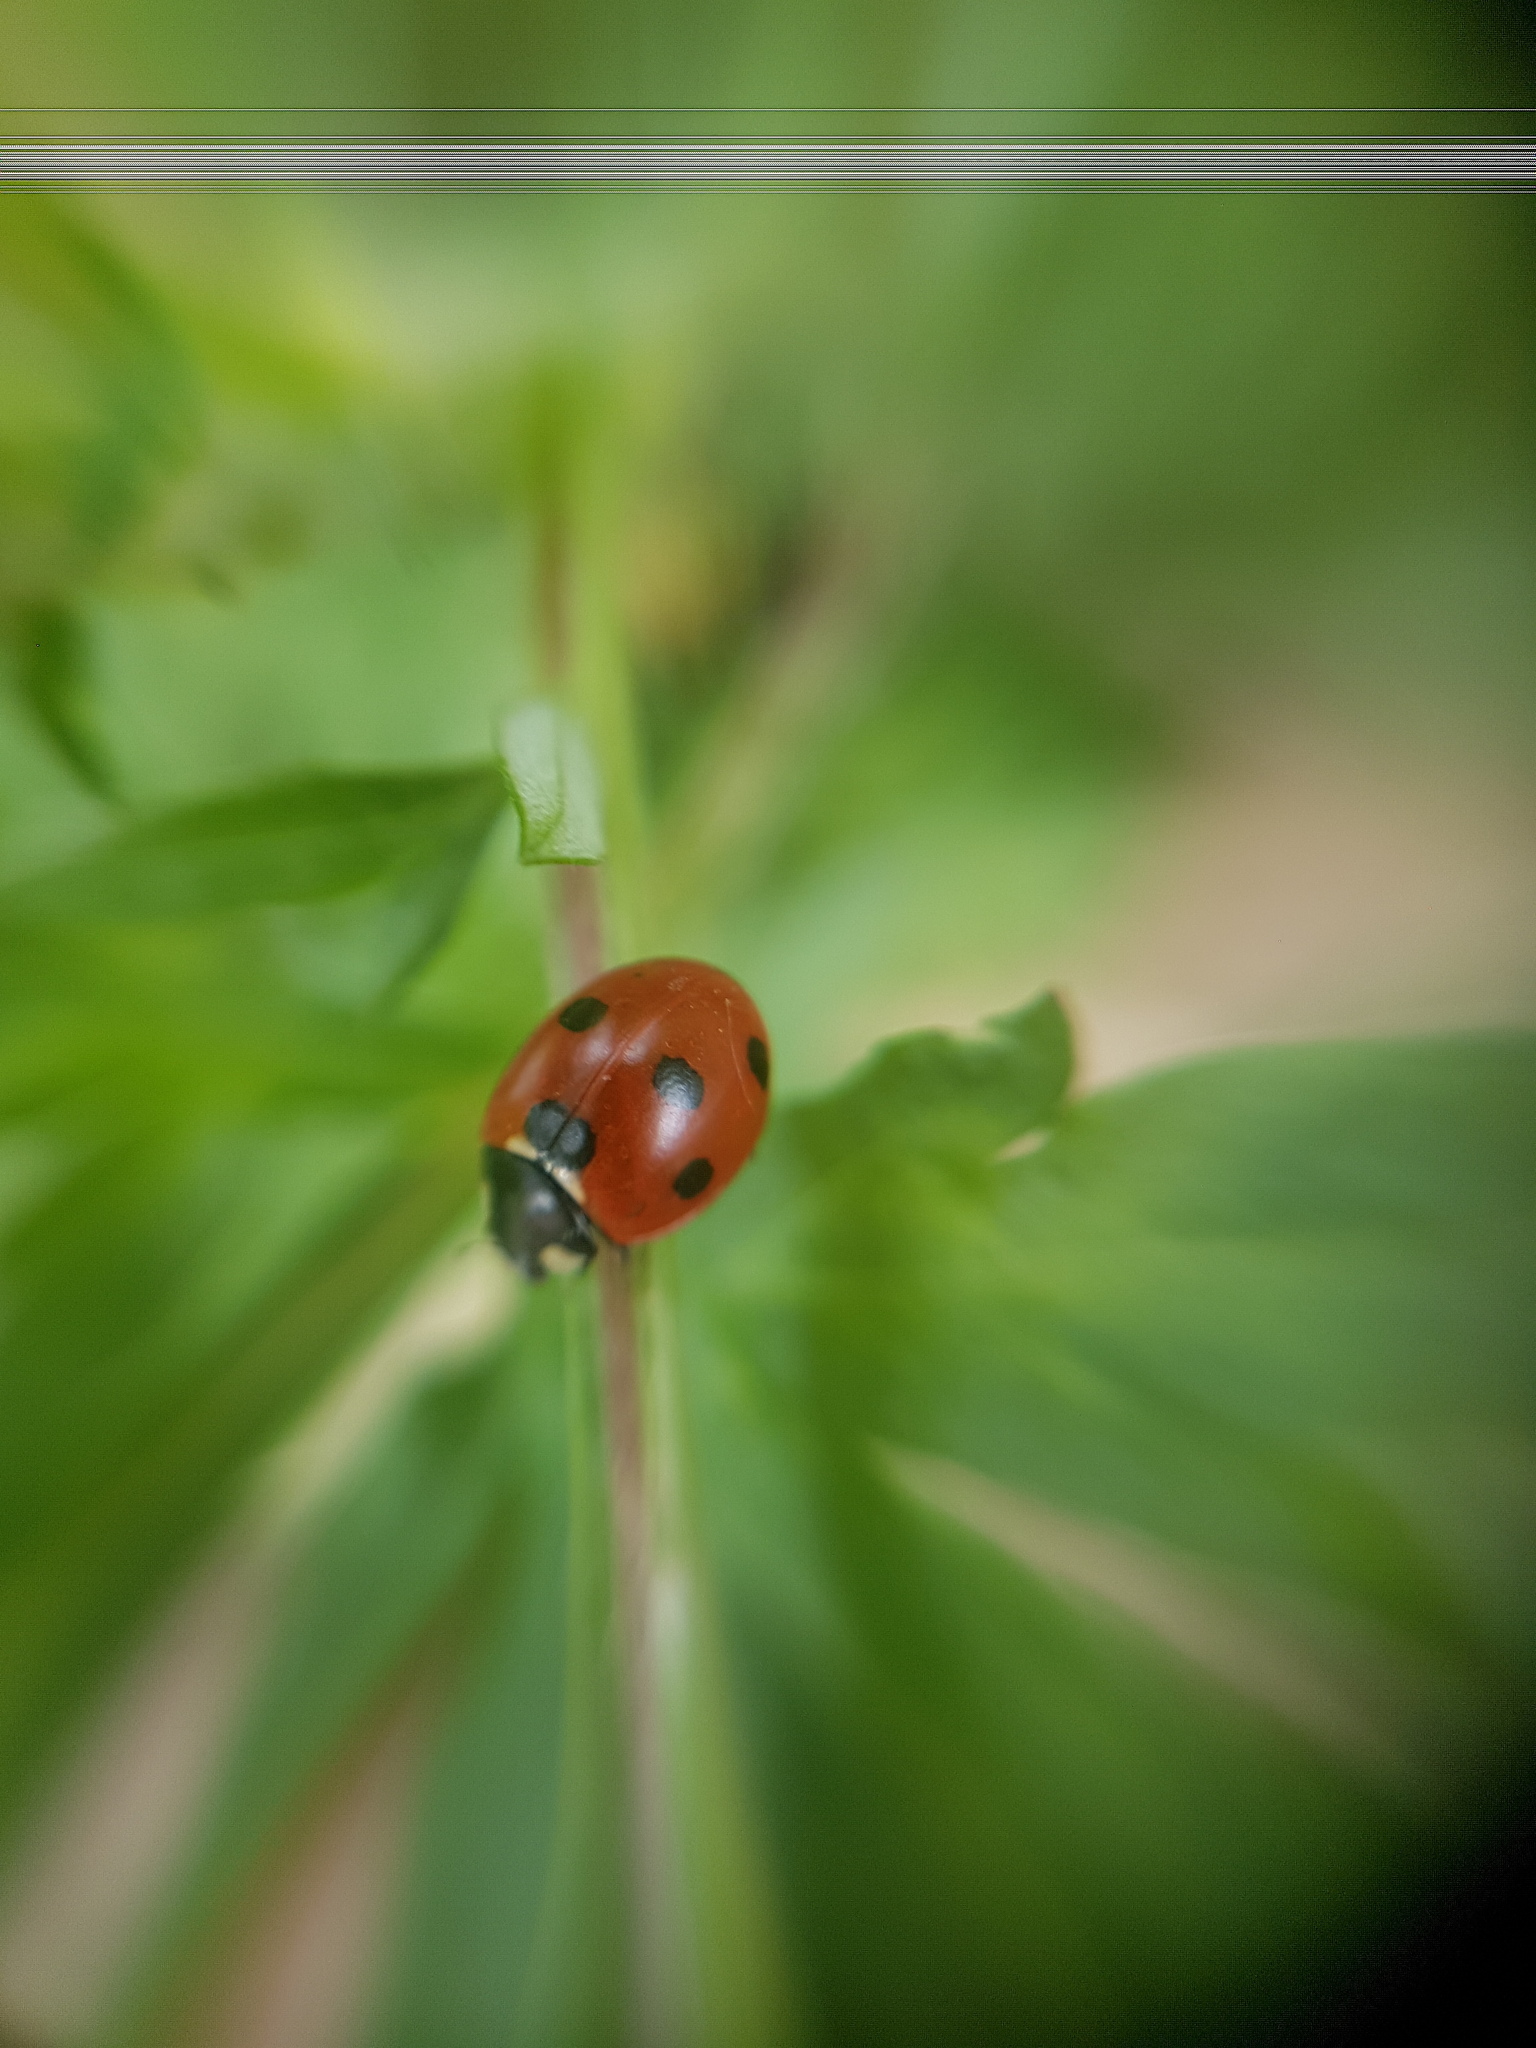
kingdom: Animalia
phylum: Arthropoda
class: Insecta
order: Coleoptera
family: Coccinellidae
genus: Coccinella
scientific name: Coccinella septempunctata
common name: Sevenspotted lady beetle
